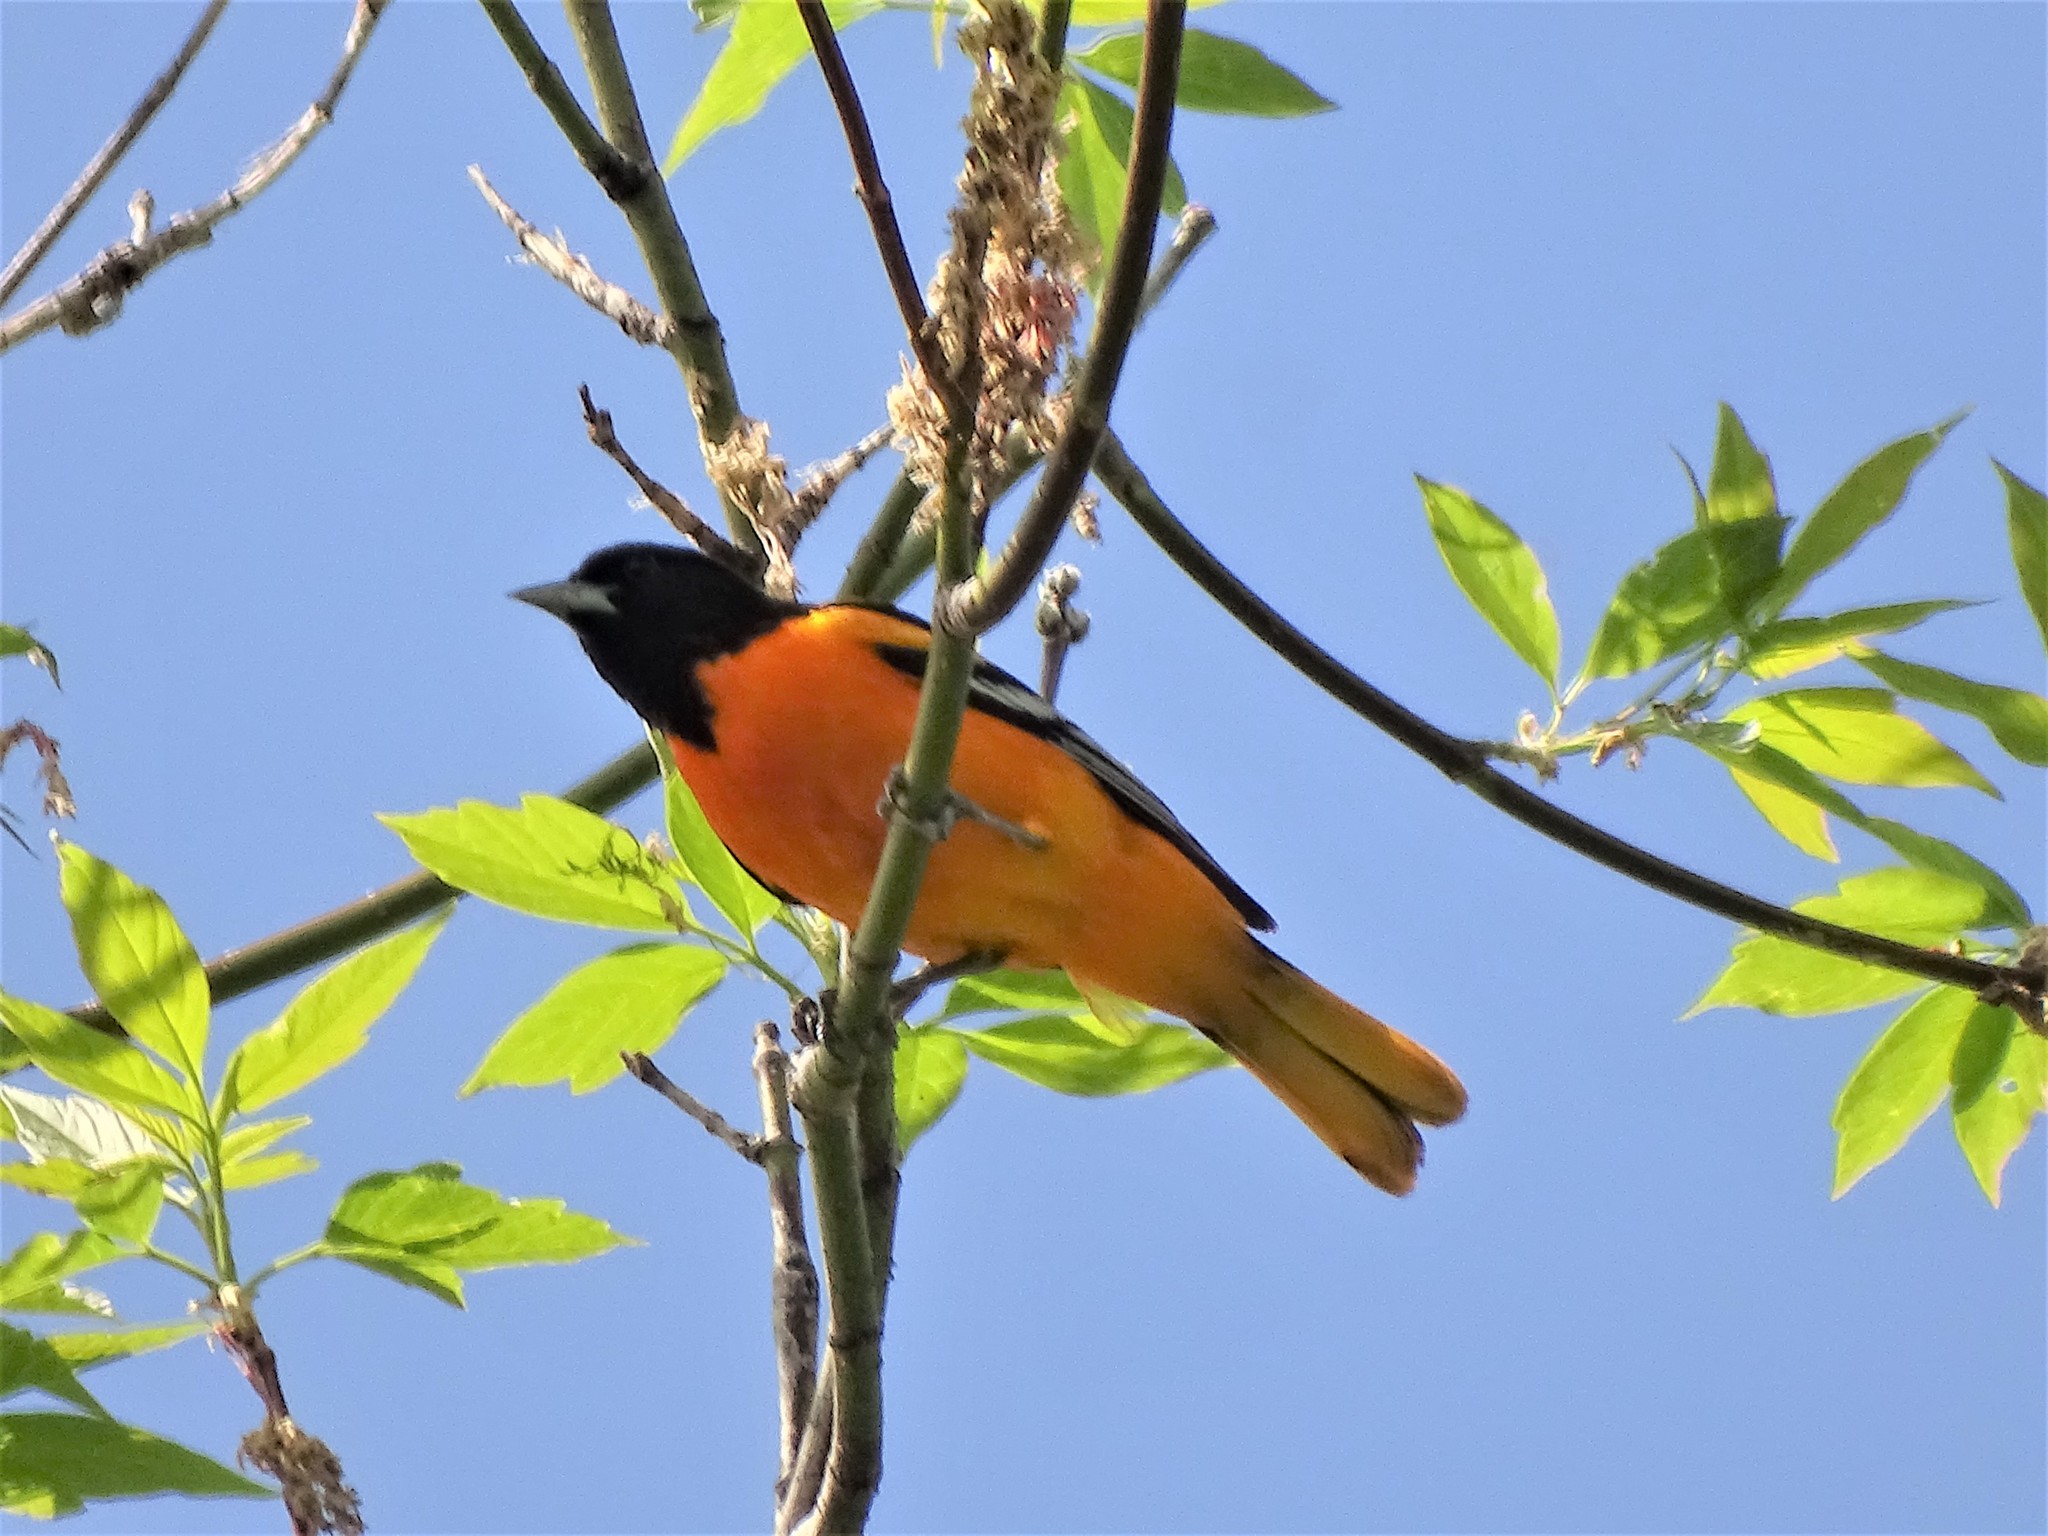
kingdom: Animalia
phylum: Chordata
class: Aves
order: Passeriformes
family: Icteridae
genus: Icterus
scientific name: Icterus galbula
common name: Baltimore oriole
